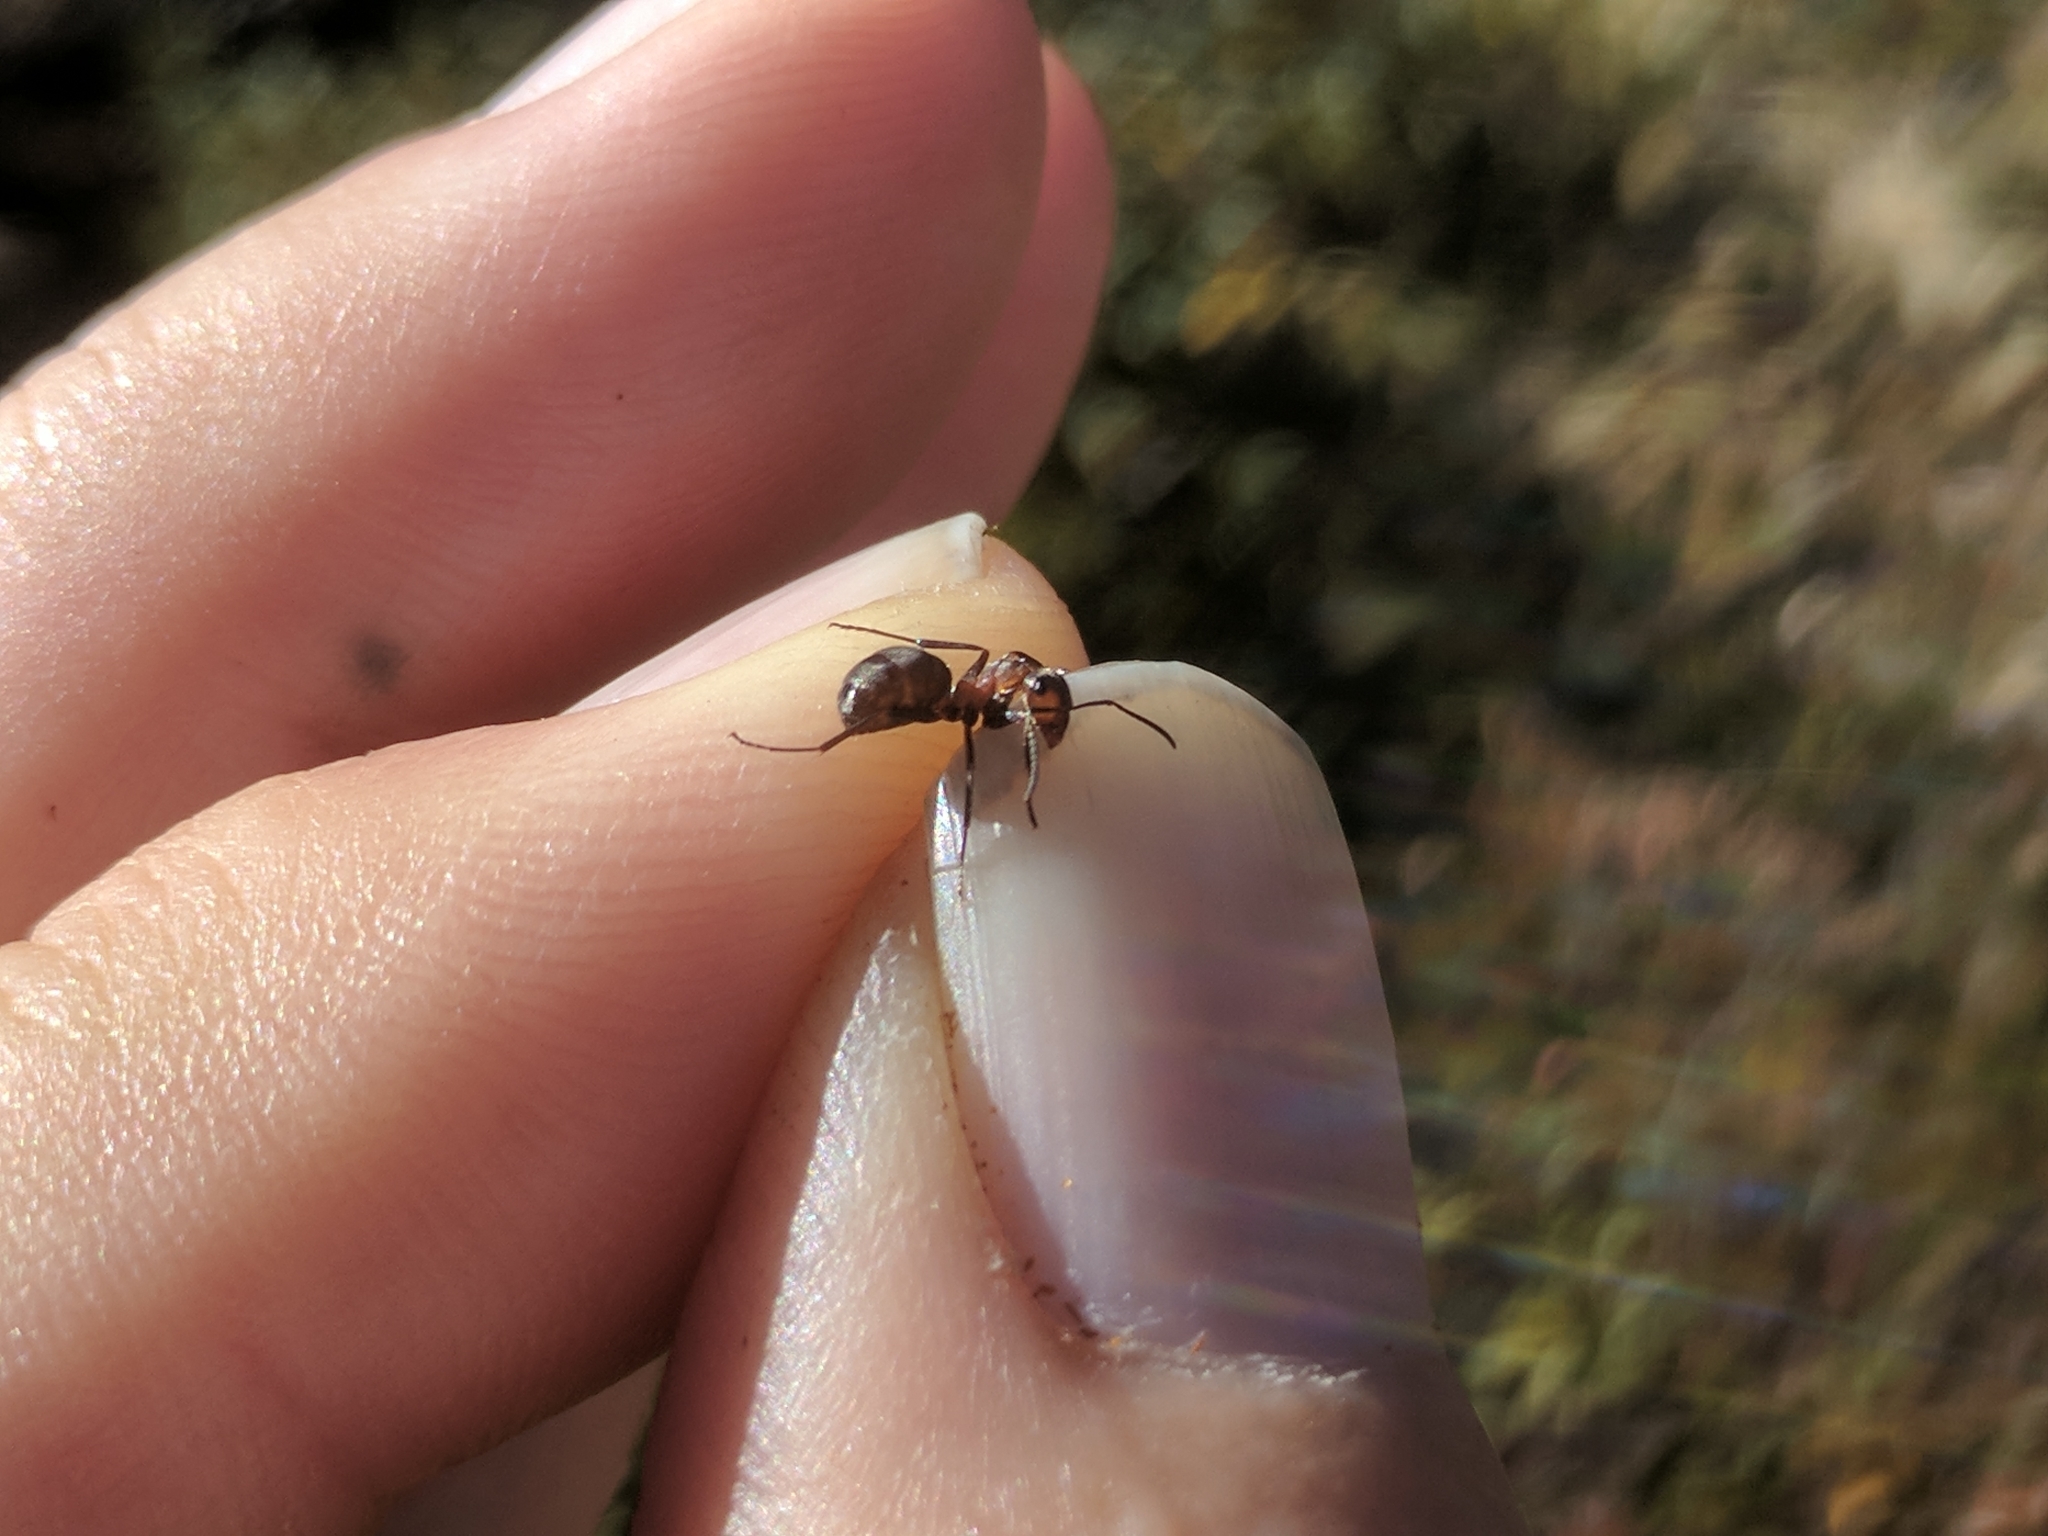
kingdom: Animalia
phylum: Arthropoda
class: Insecta
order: Hymenoptera
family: Formicidae
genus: Formica
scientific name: Formica lugubris
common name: Sinister mound ant
